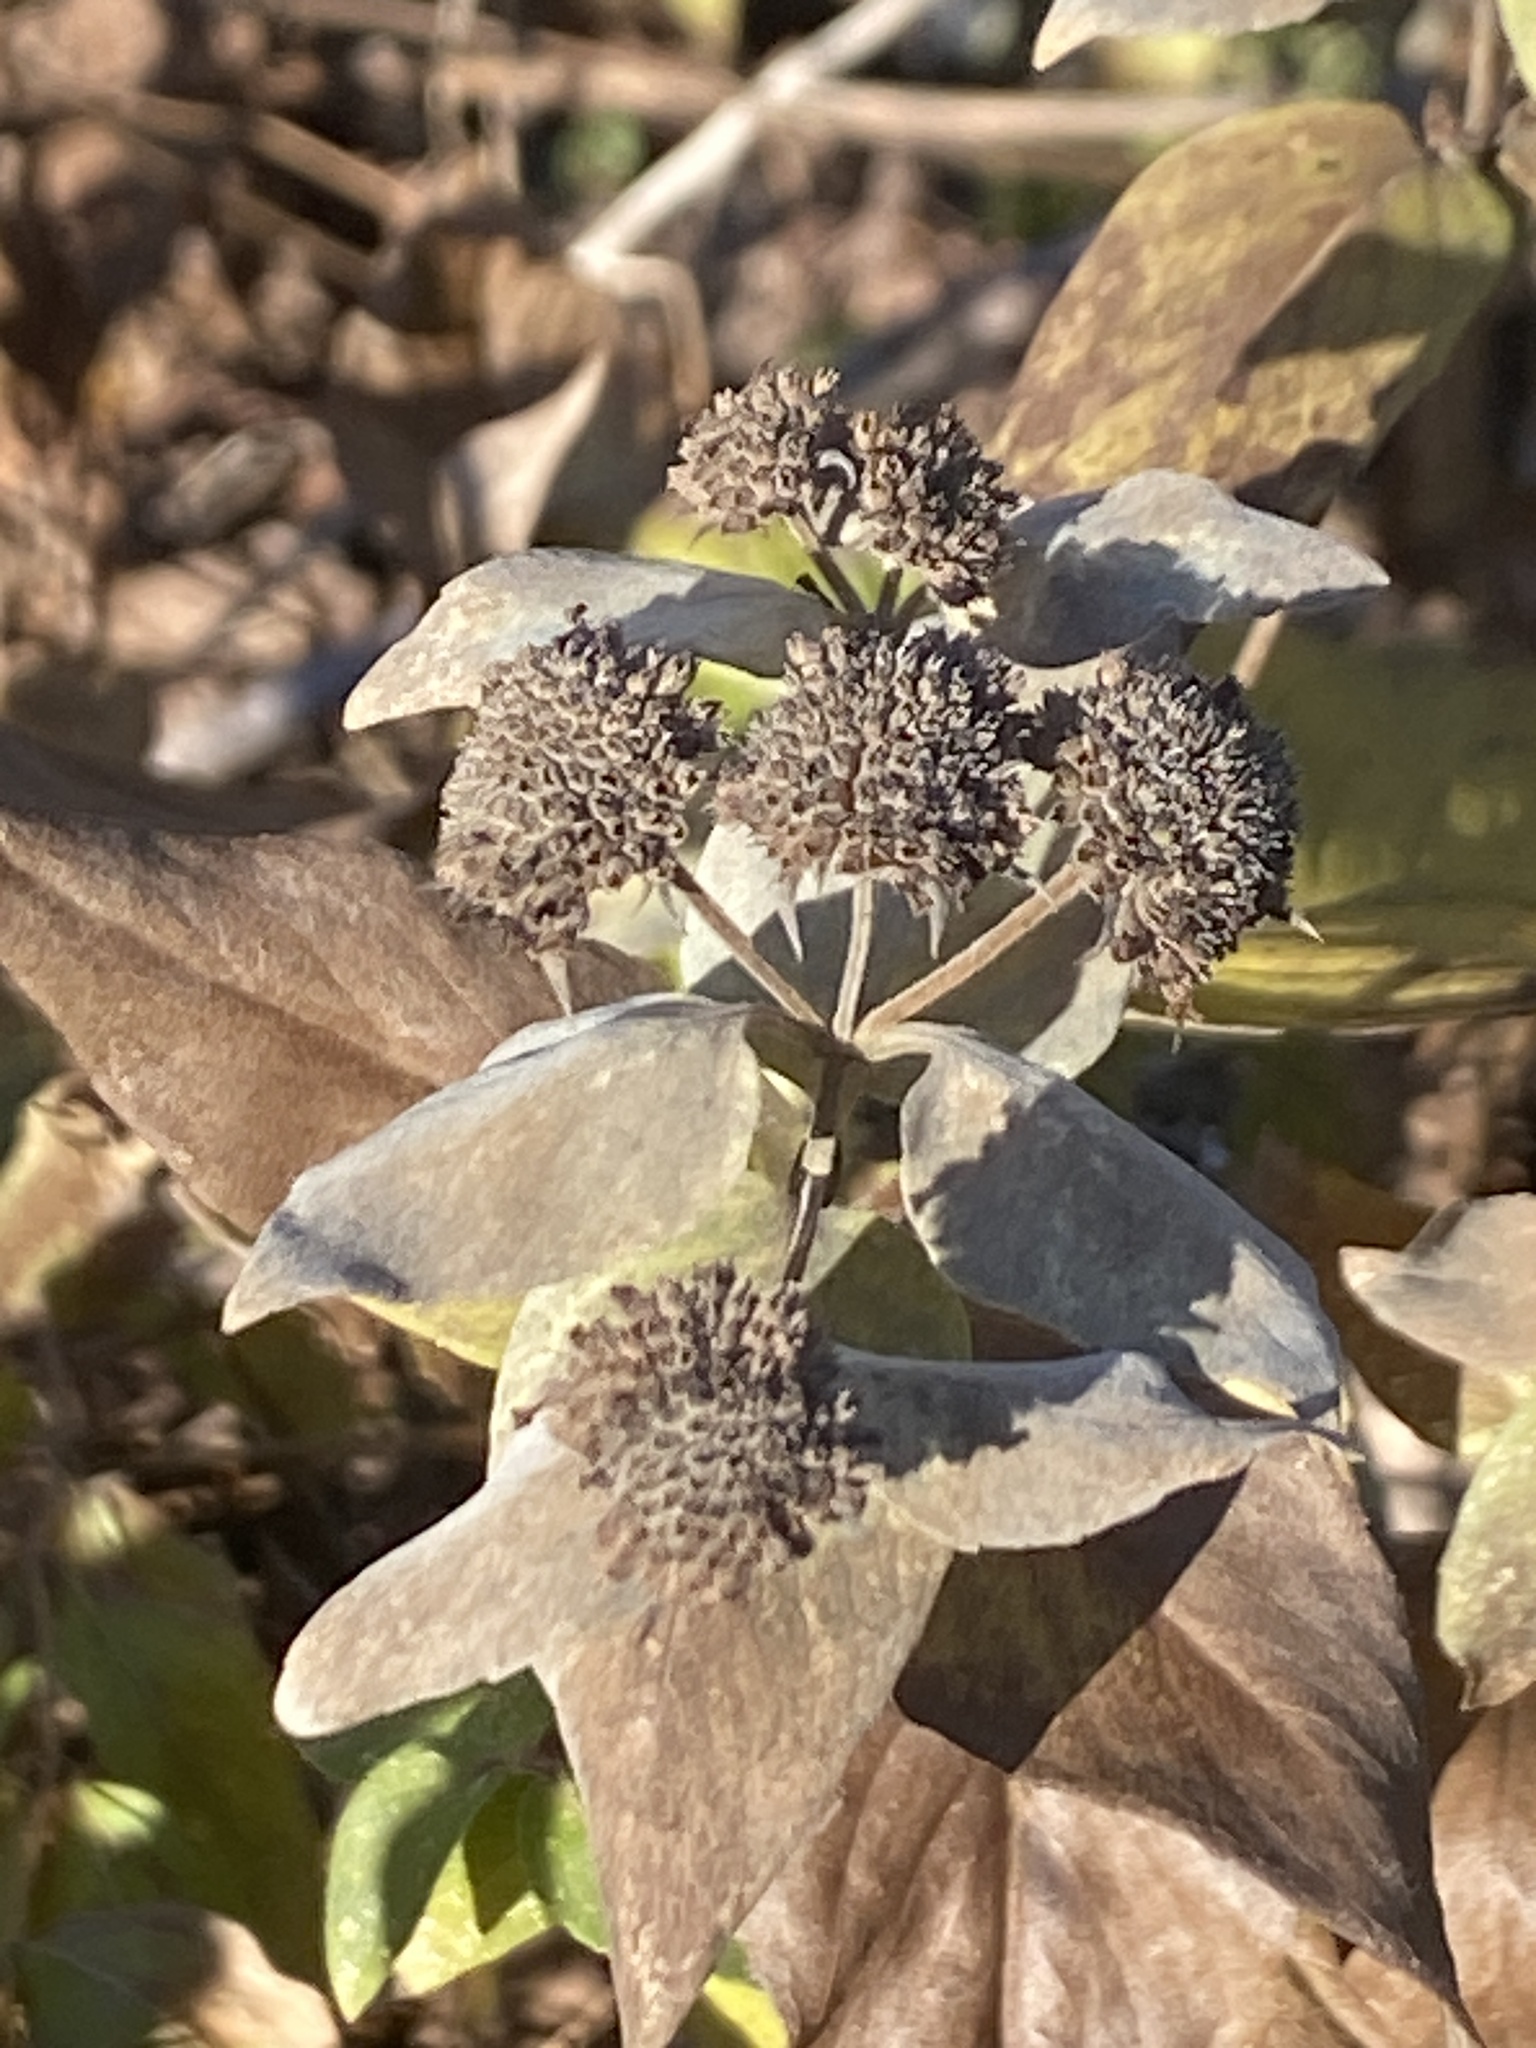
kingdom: Plantae
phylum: Tracheophyta
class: Magnoliopsida
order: Lamiales
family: Lamiaceae
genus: Pycnanthemum
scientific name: Pycnanthemum muticum
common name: Blunt mountain-mint
